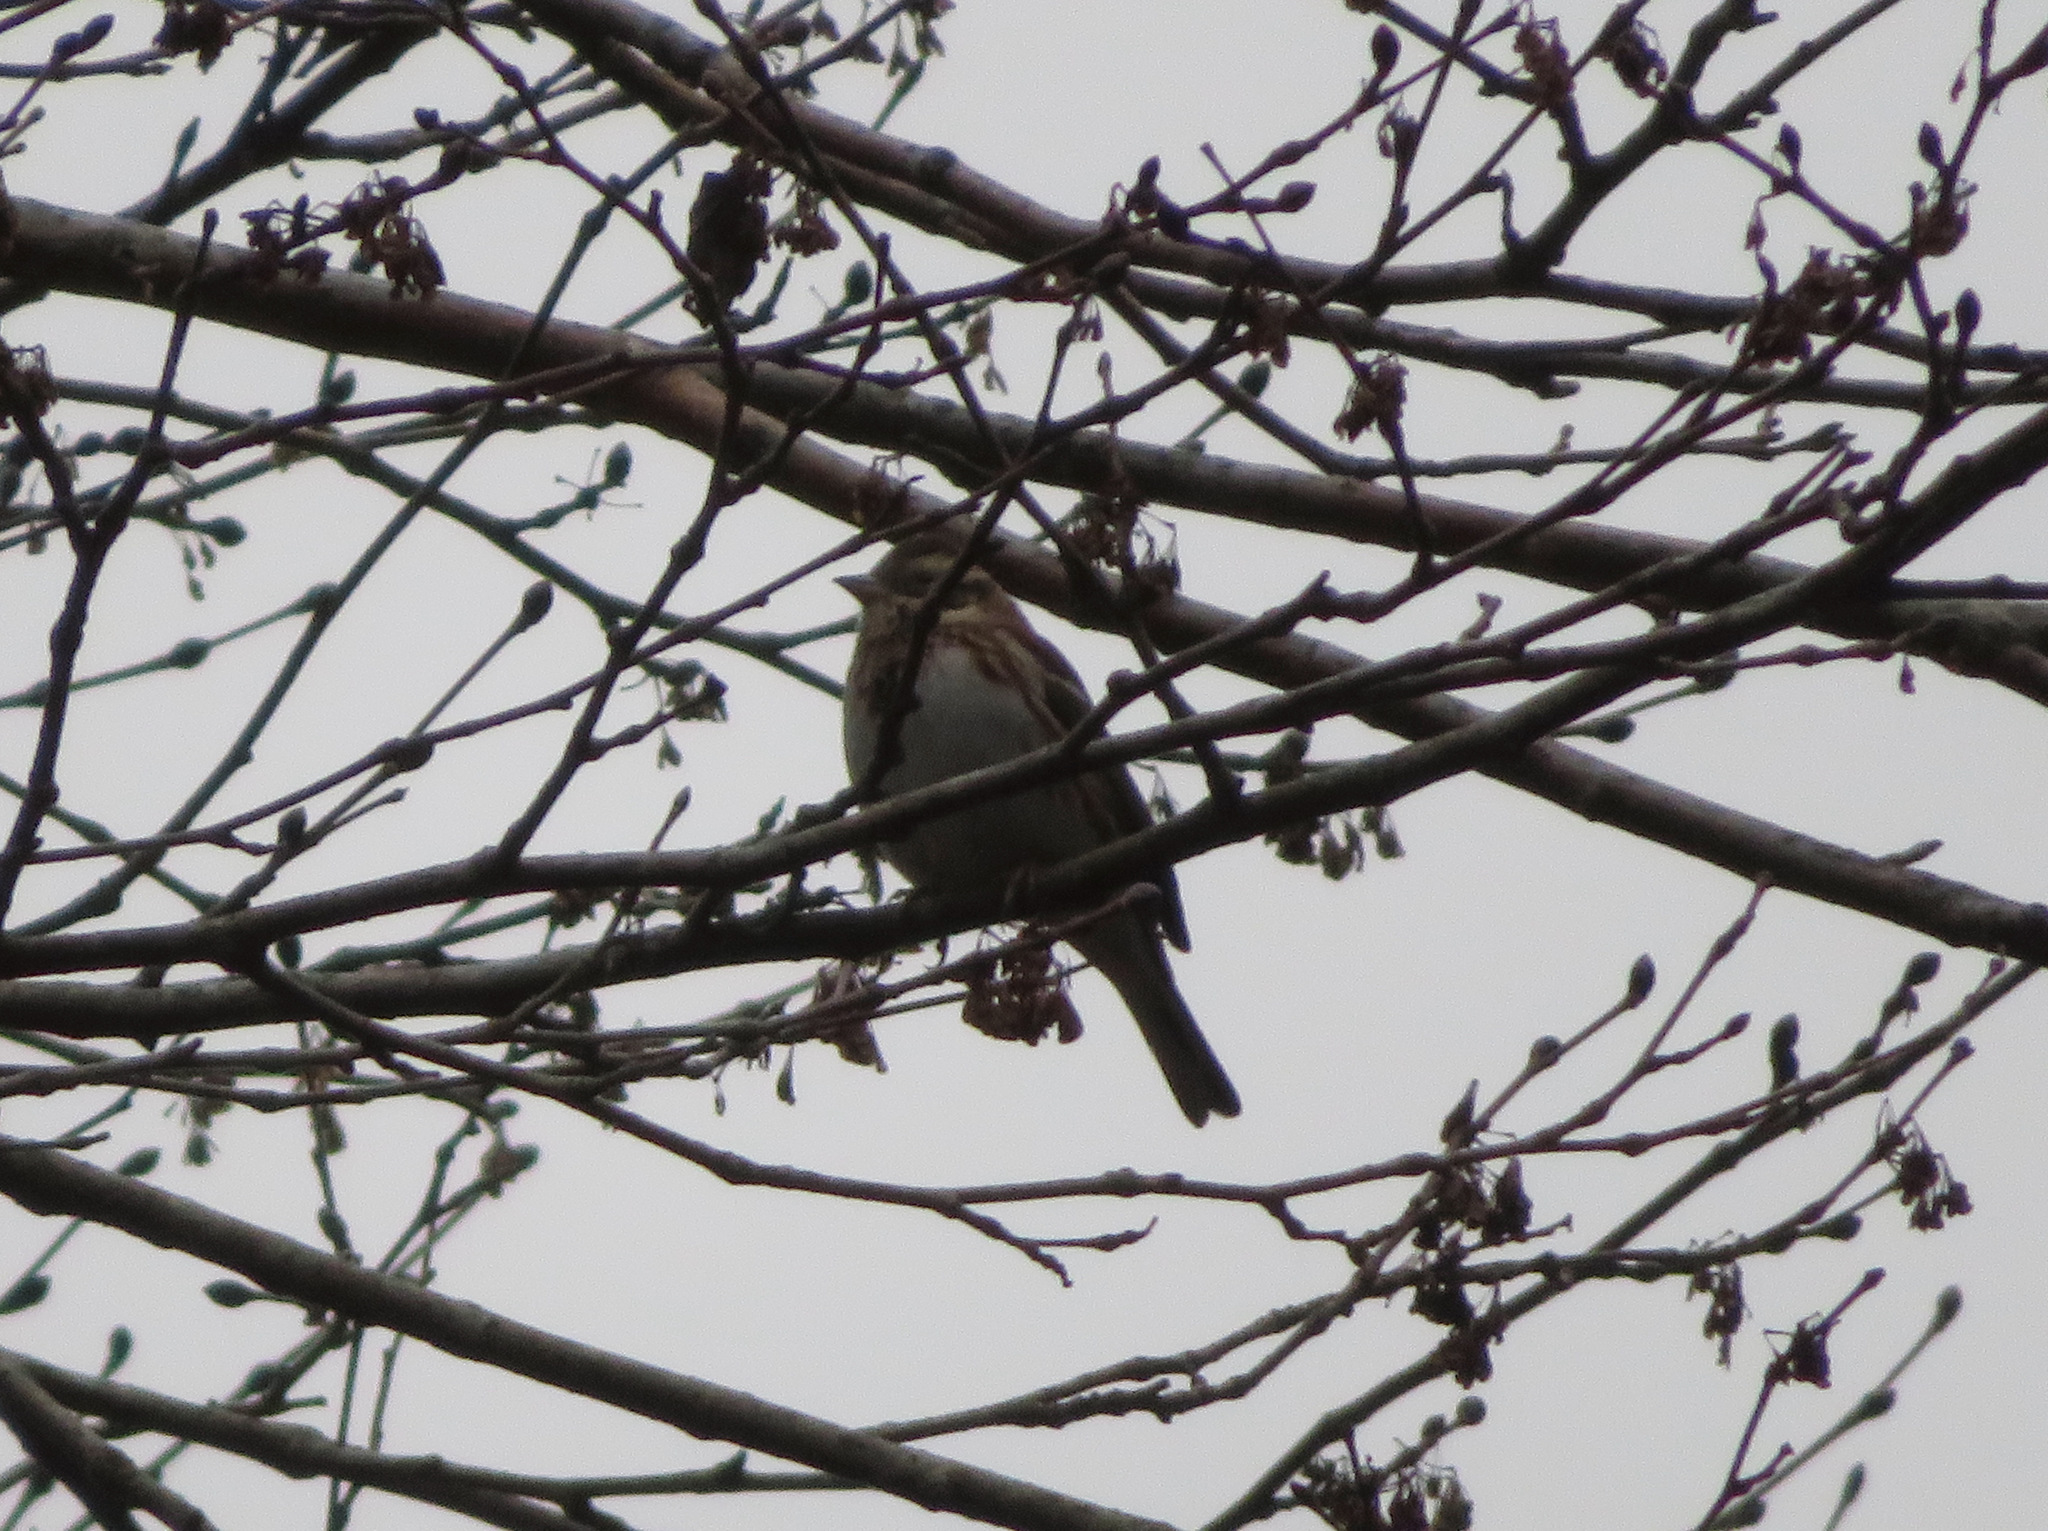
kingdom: Animalia
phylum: Chordata
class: Aves
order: Passeriformes
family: Emberizidae
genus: Emberiza
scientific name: Emberiza rustica
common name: Rustic bunting
